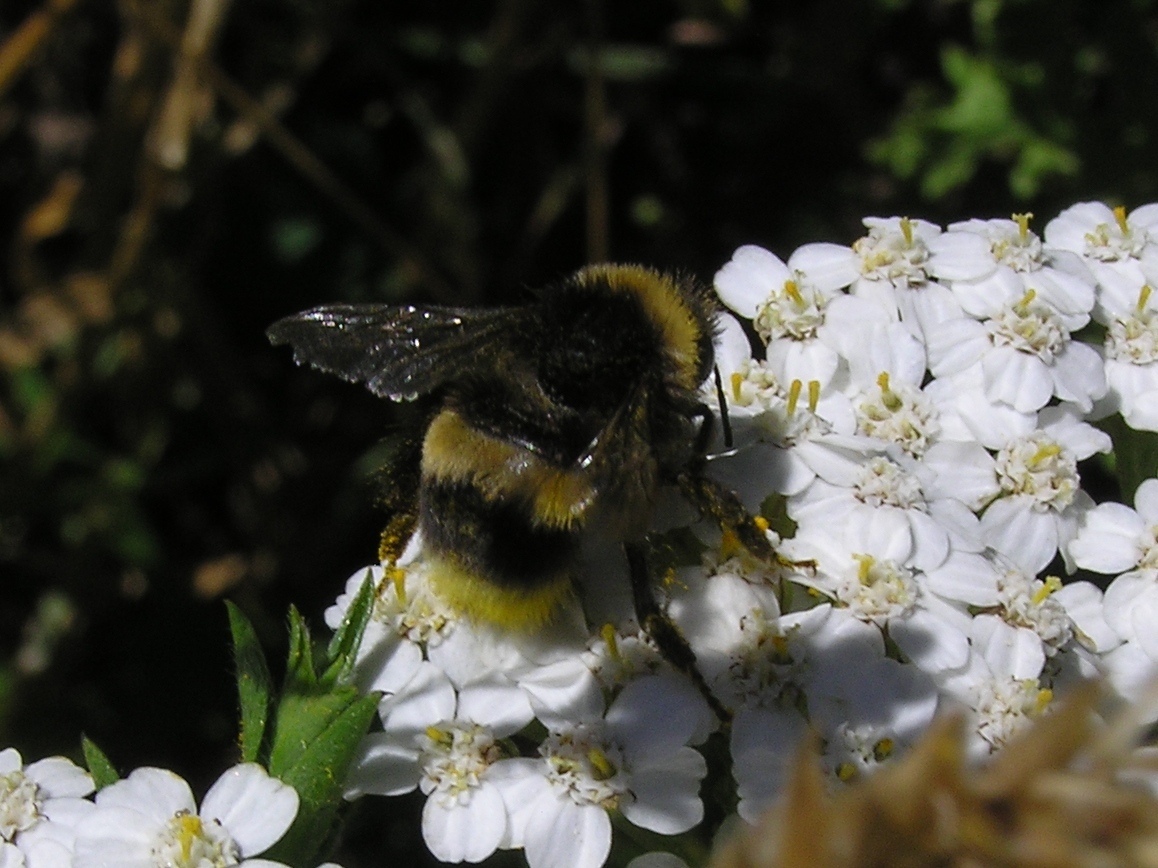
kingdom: Animalia
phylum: Arthropoda
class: Insecta
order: Hymenoptera
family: Apidae
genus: Bombus
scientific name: Bombus terrestris
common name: Buff-tailed bumblebee
